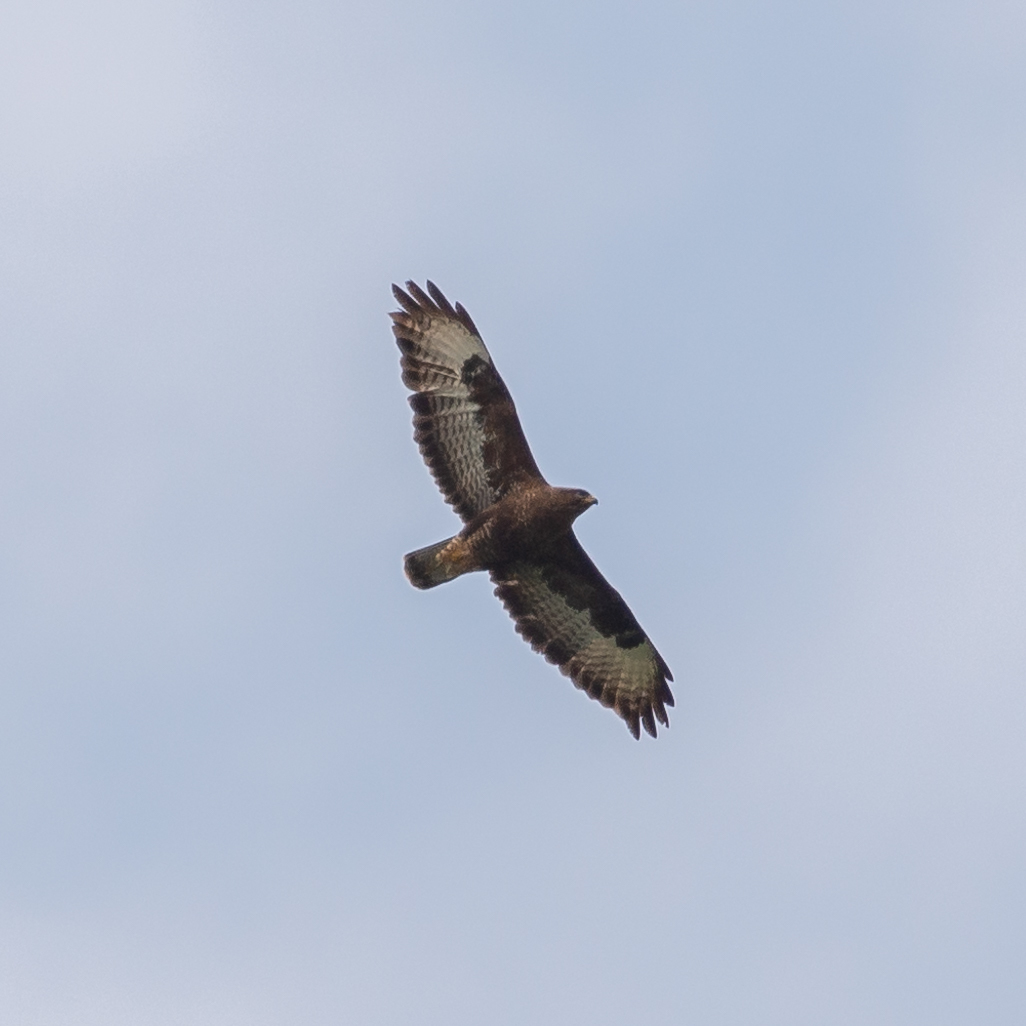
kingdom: Animalia
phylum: Chordata
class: Aves
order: Accipitriformes
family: Accipitridae
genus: Buteo
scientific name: Buteo buteo
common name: Common buzzard
